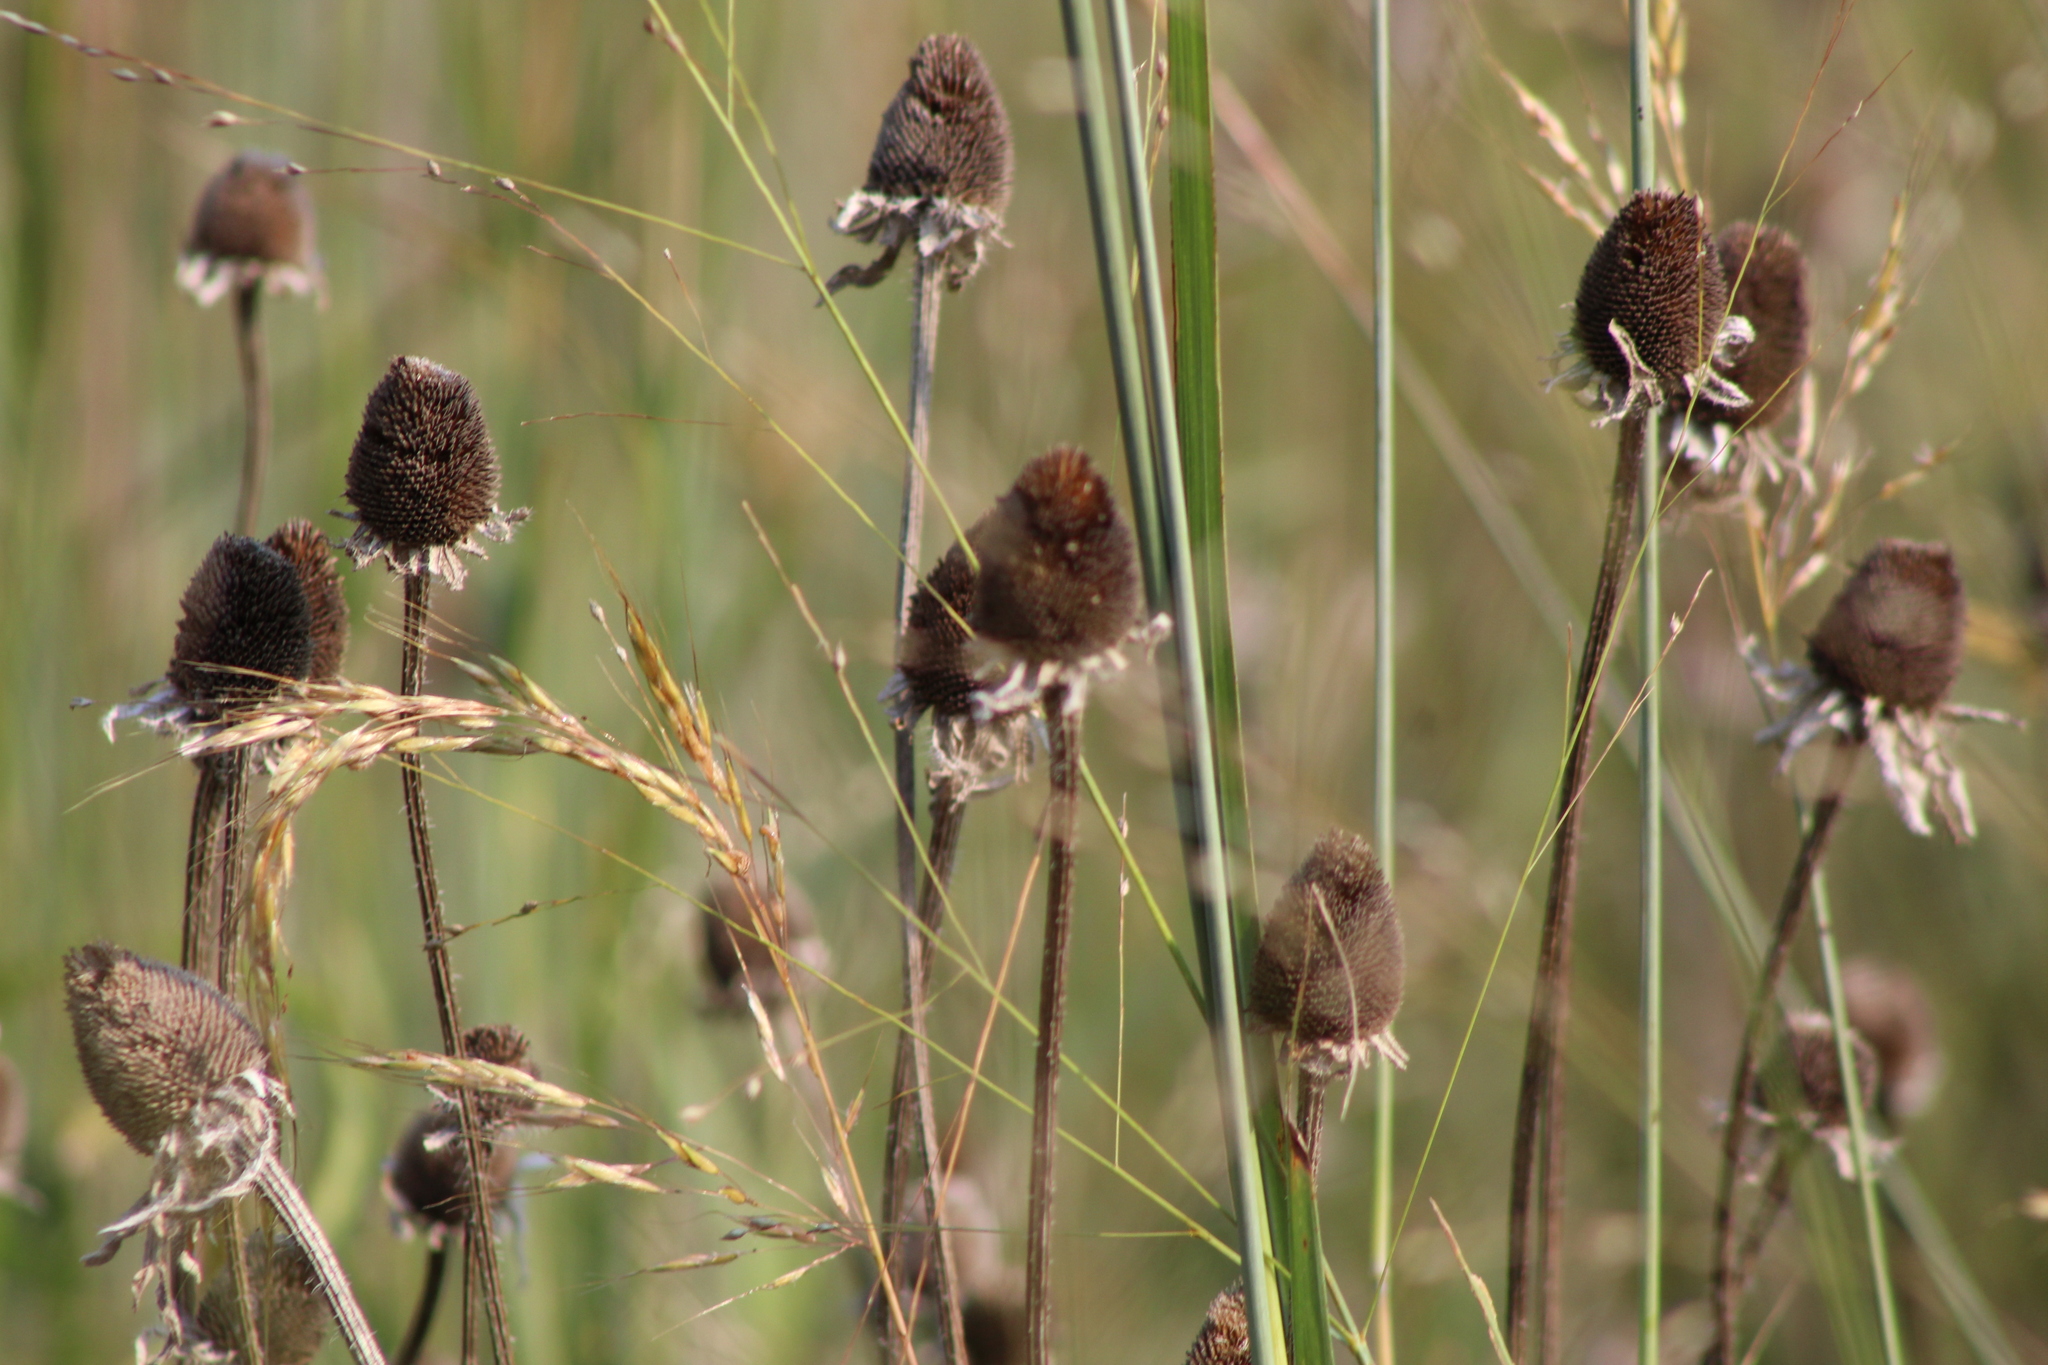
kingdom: Plantae
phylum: Tracheophyta
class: Magnoliopsida
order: Asterales
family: Asteraceae
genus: Rudbeckia
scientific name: Rudbeckia hirta
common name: Black-eyed-susan
